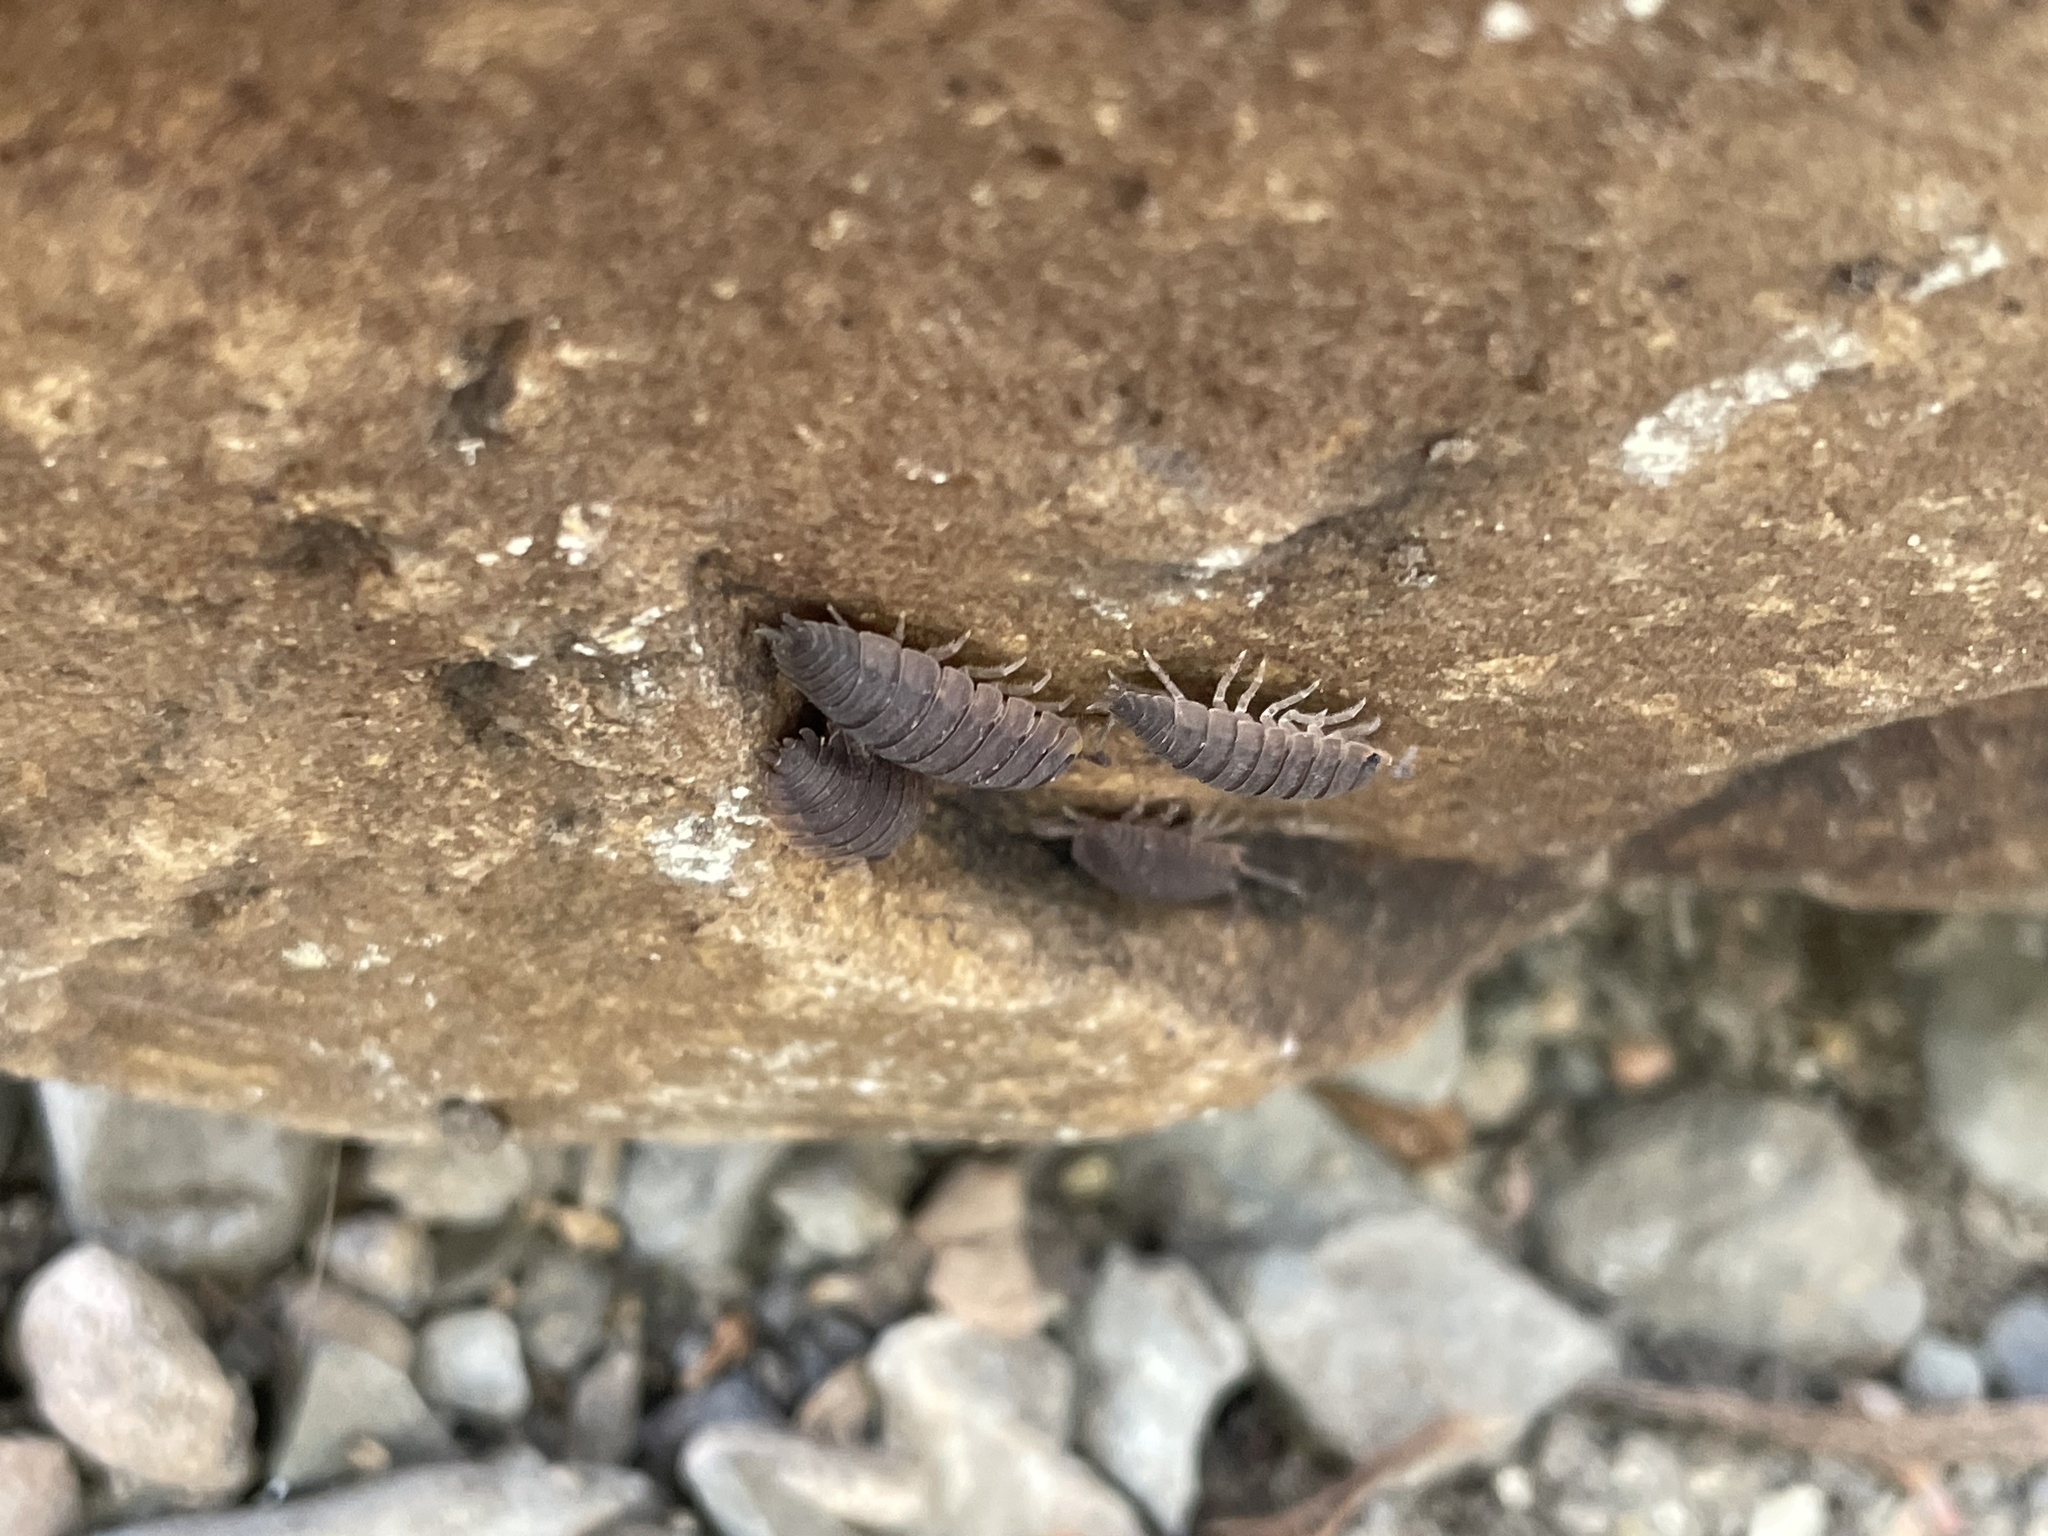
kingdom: Animalia
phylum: Arthropoda
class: Malacostraca
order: Isopoda
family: Porcellionidae
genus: Porcellio
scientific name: Porcellio scaber
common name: Common rough woodlouse
